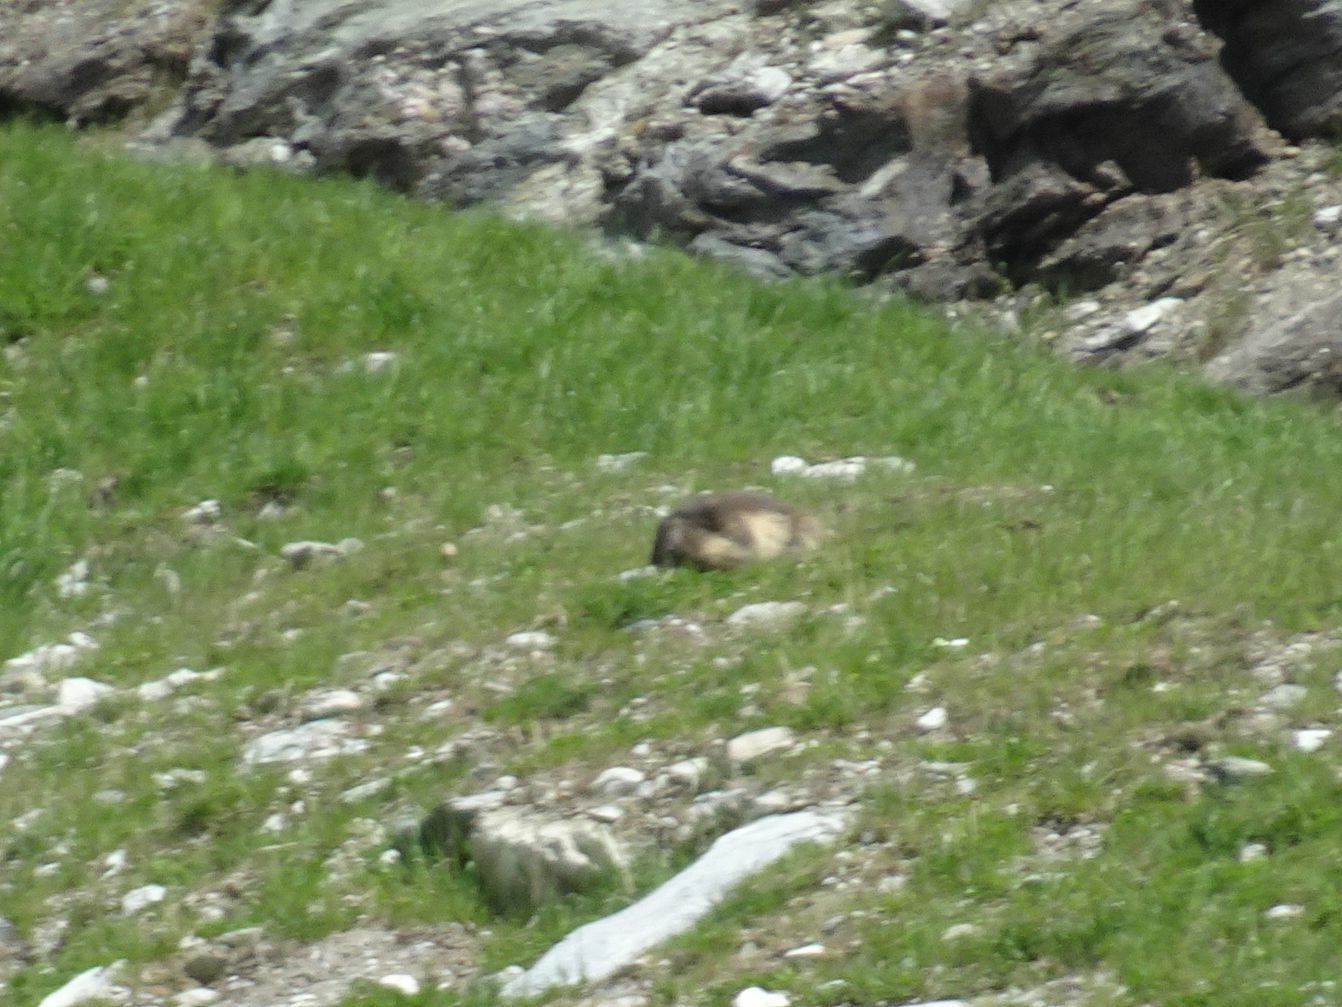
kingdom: Animalia
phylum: Chordata
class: Mammalia
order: Rodentia
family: Sciuridae
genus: Marmota
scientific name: Marmota marmota
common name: Alpine marmot
